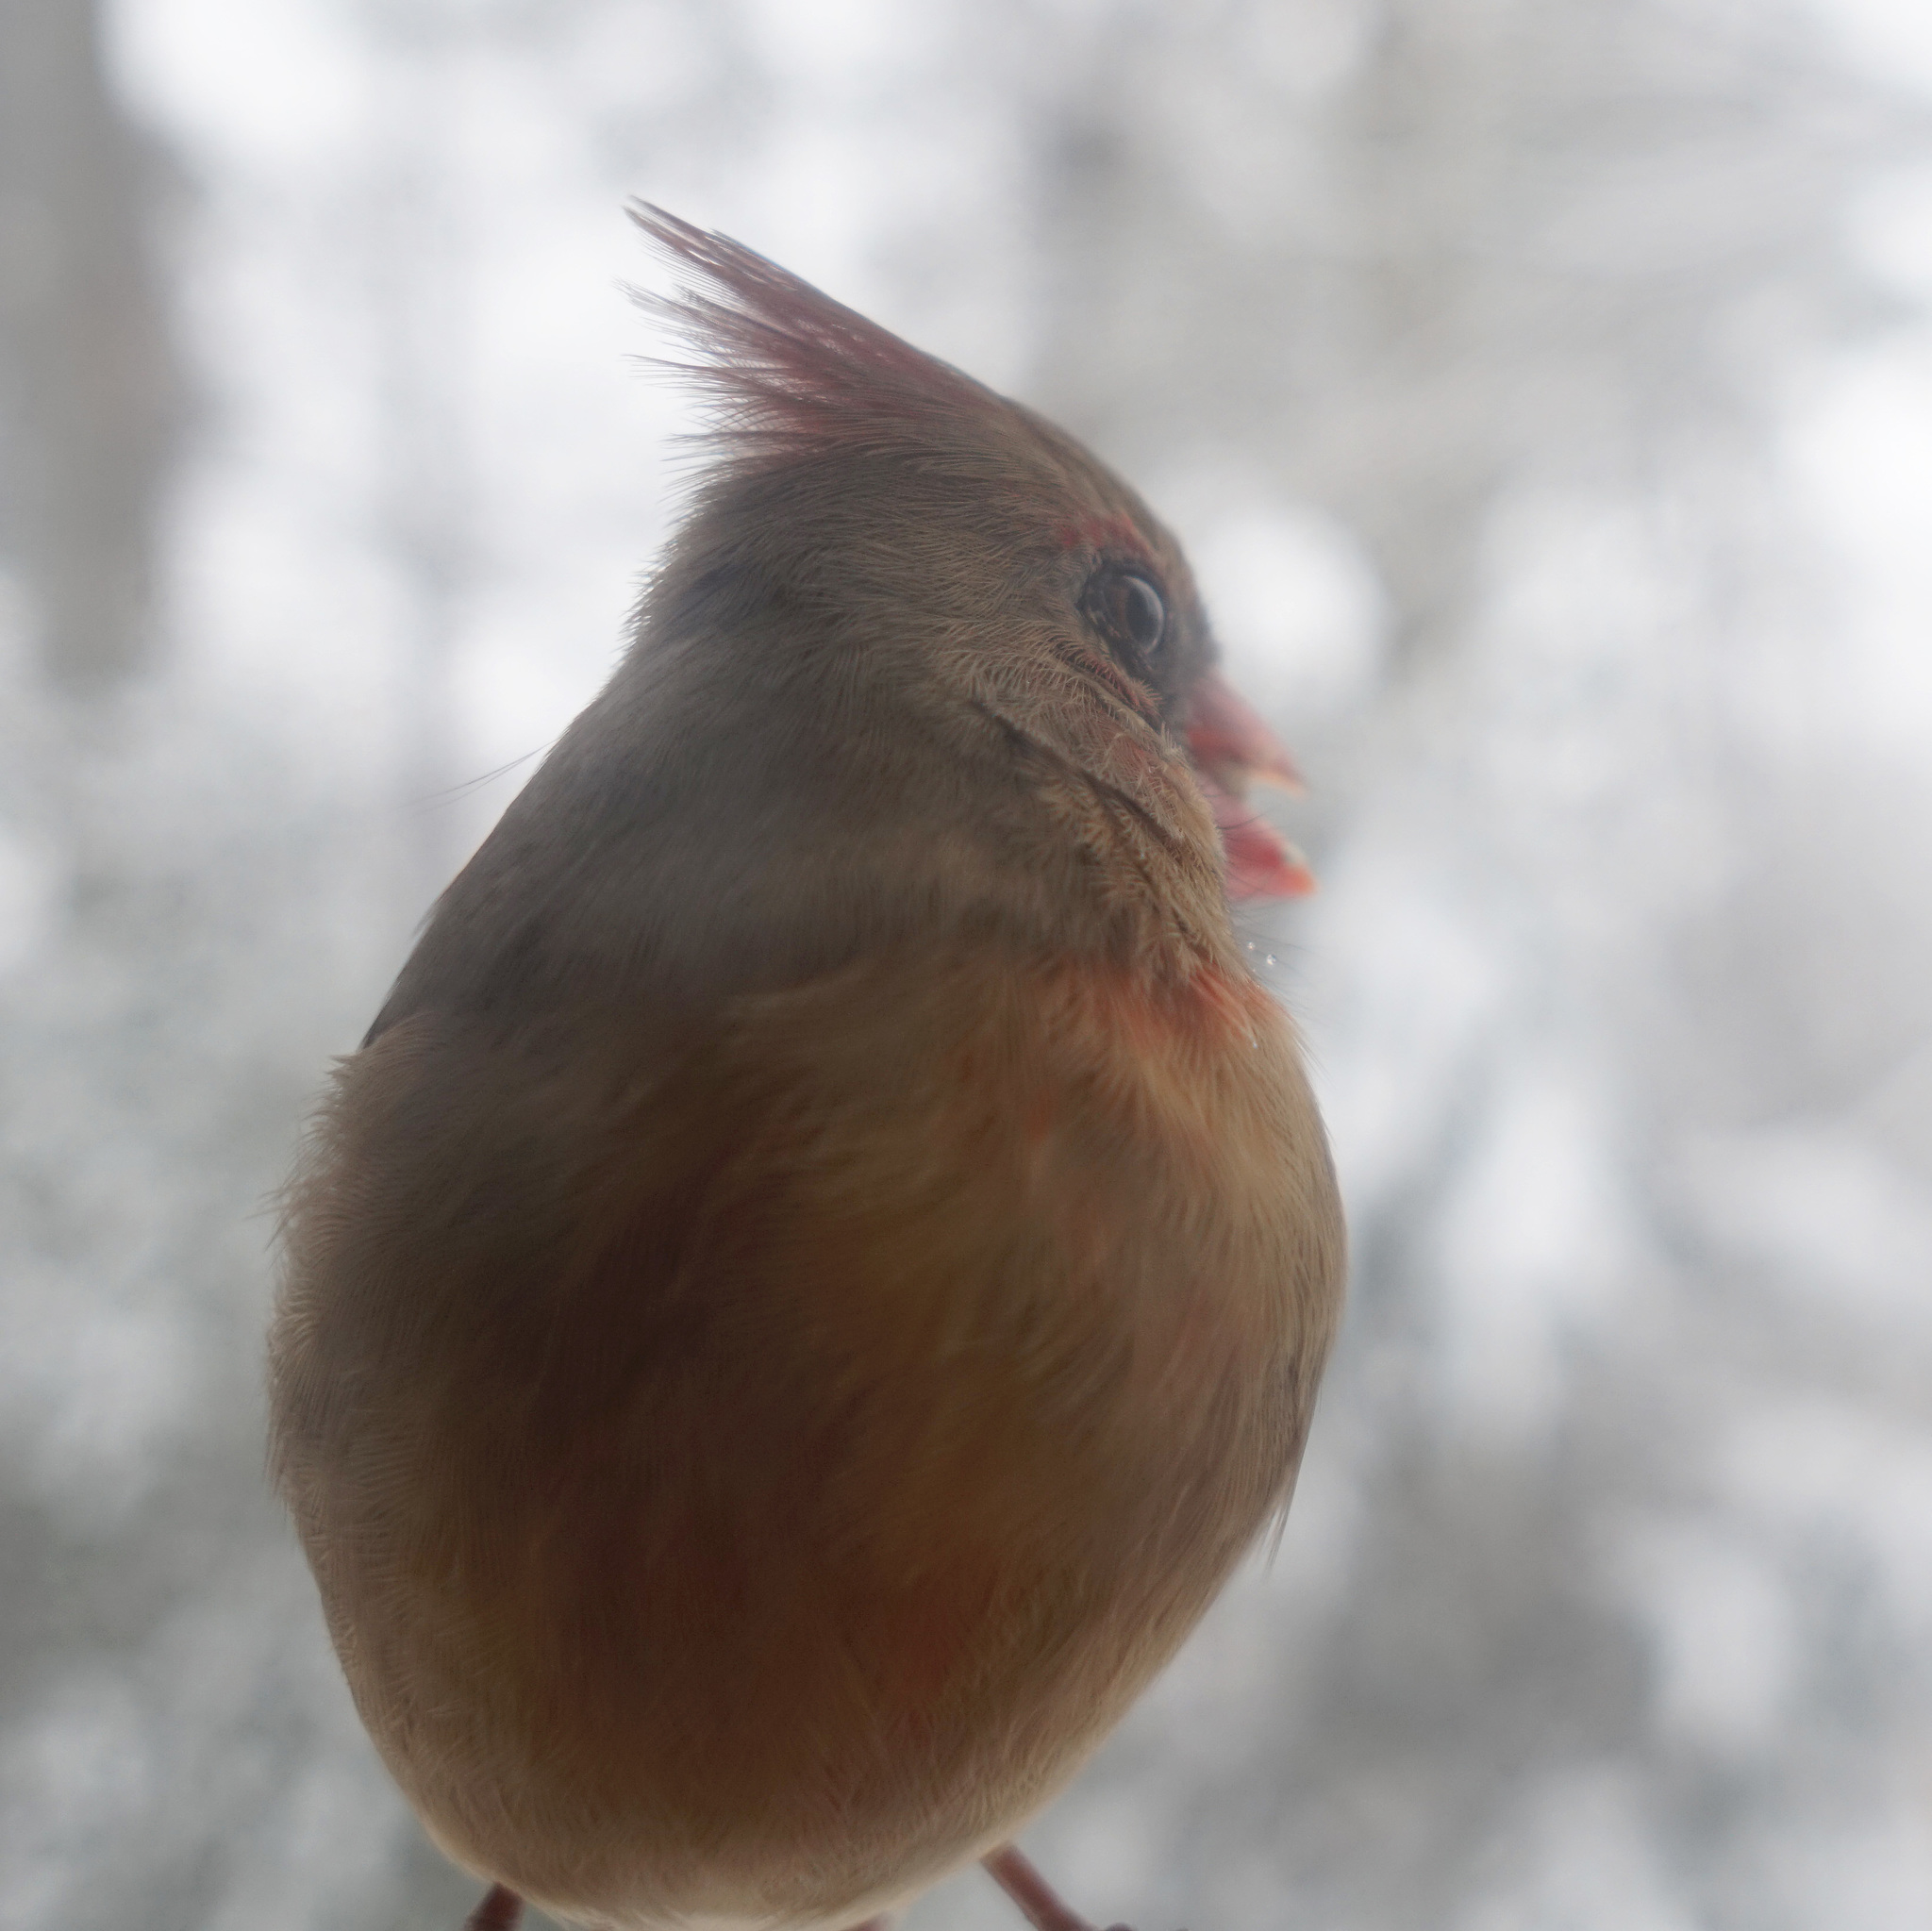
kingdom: Animalia
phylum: Chordata
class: Aves
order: Passeriformes
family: Cardinalidae
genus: Cardinalis
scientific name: Cardinalis cardinalis
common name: Northern cardinal
